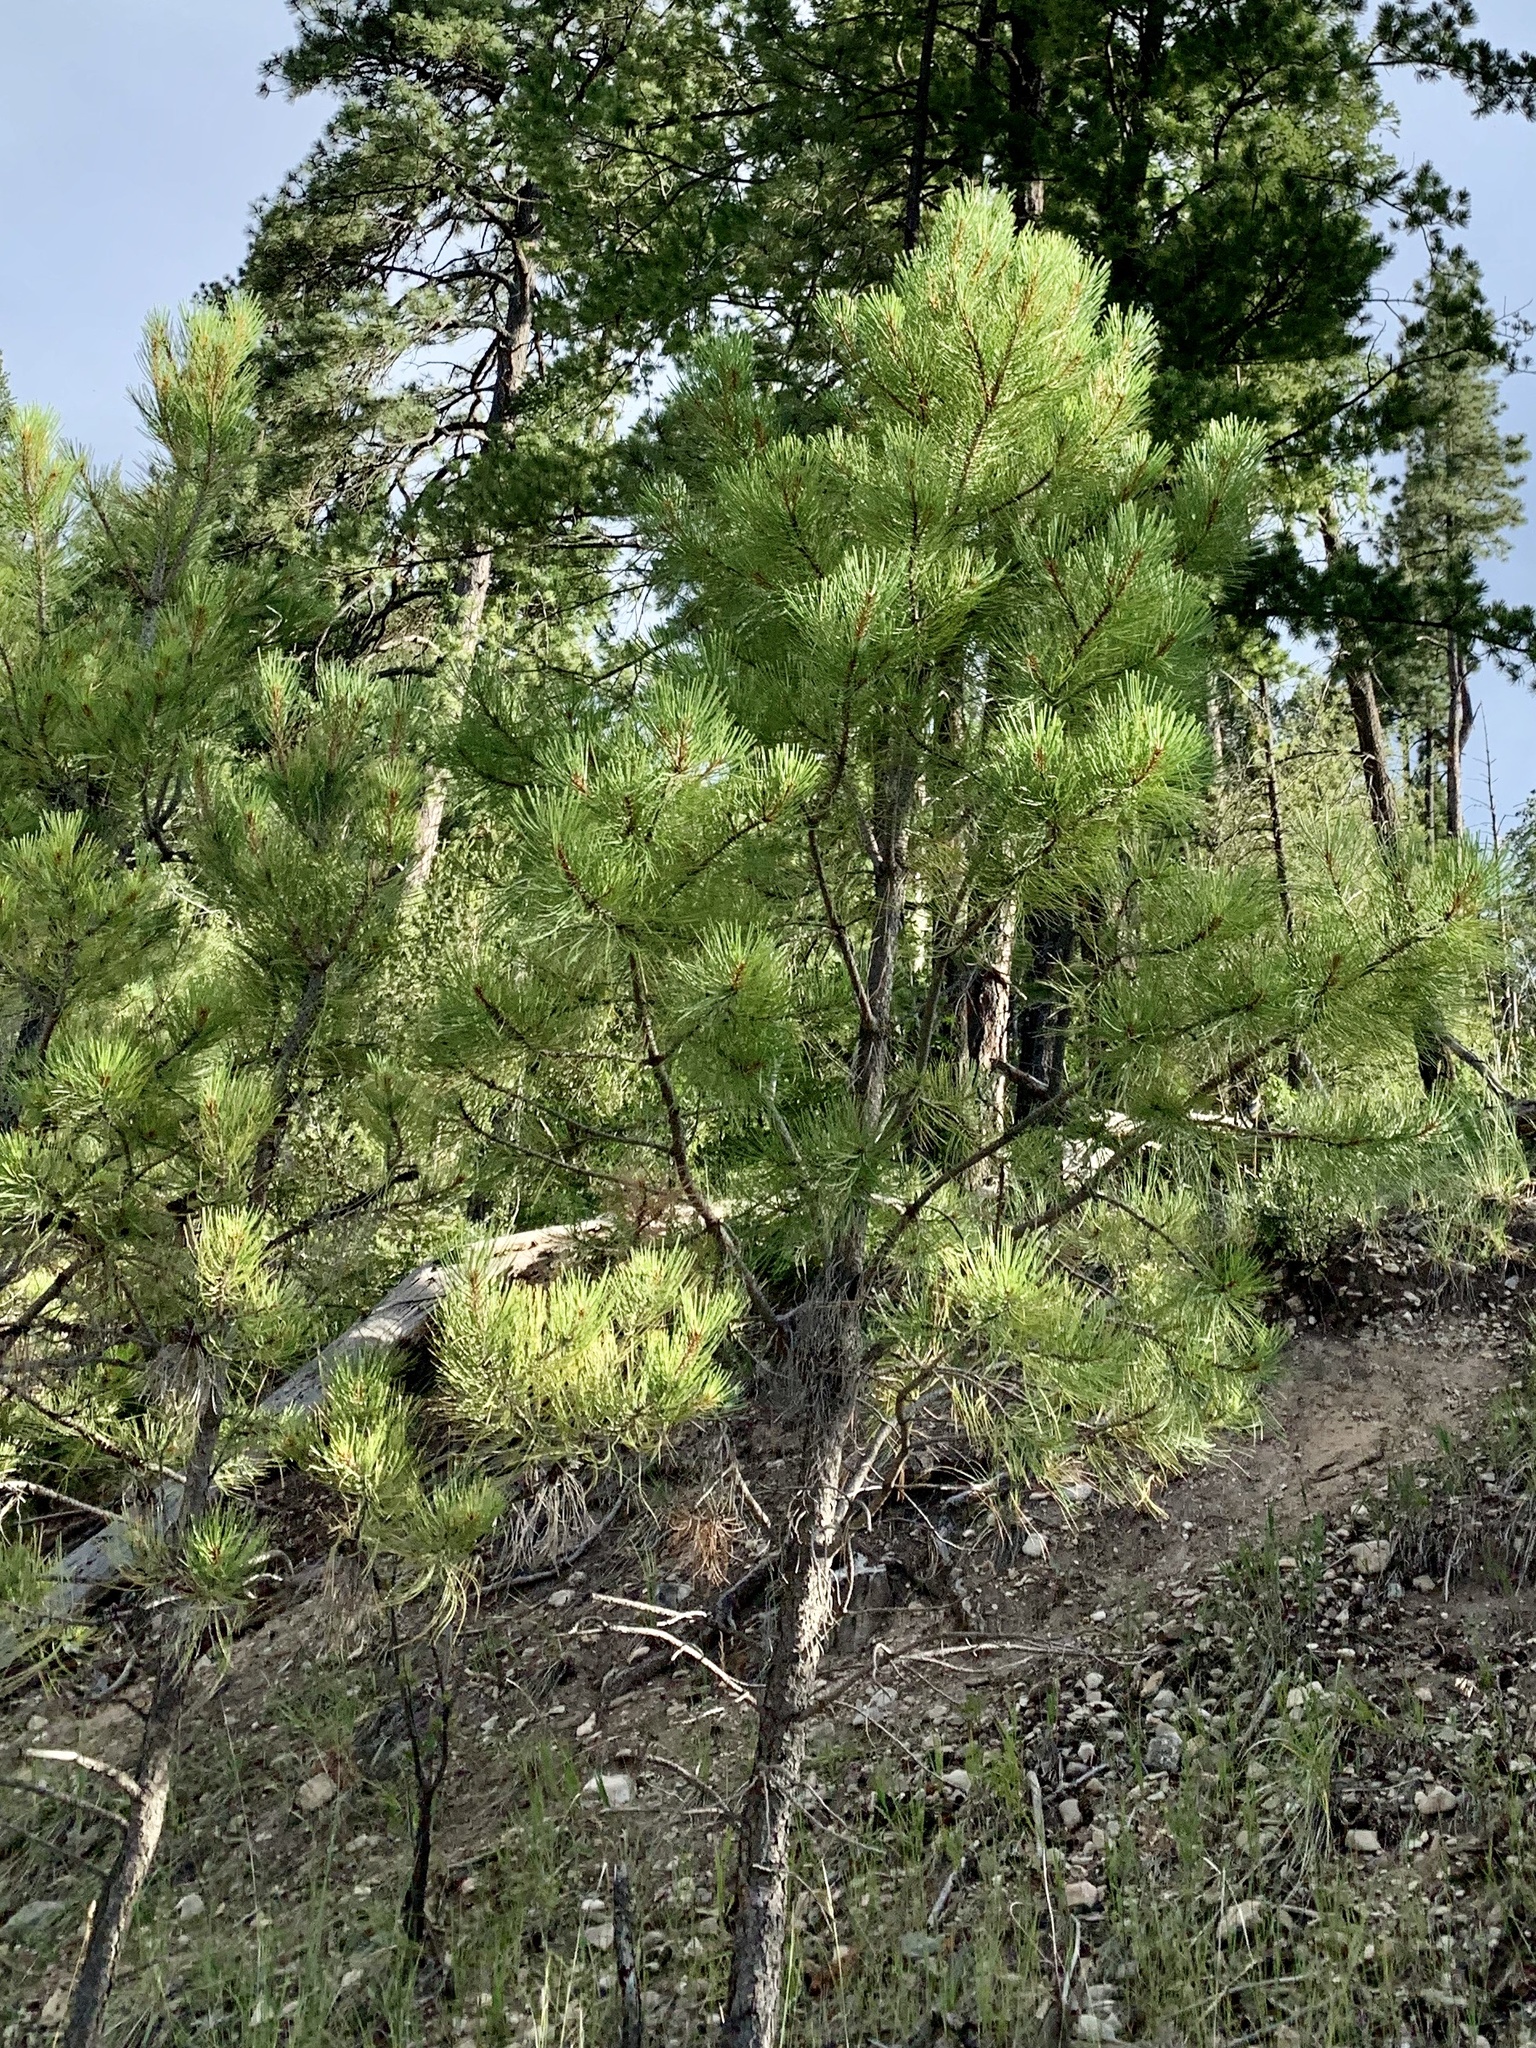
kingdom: Plantae
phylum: Tracheophyta
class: Pinopsida
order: Pinales
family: Pinaceae
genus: Pinus
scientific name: Pinus ponderosa
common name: Western yellow-pine
